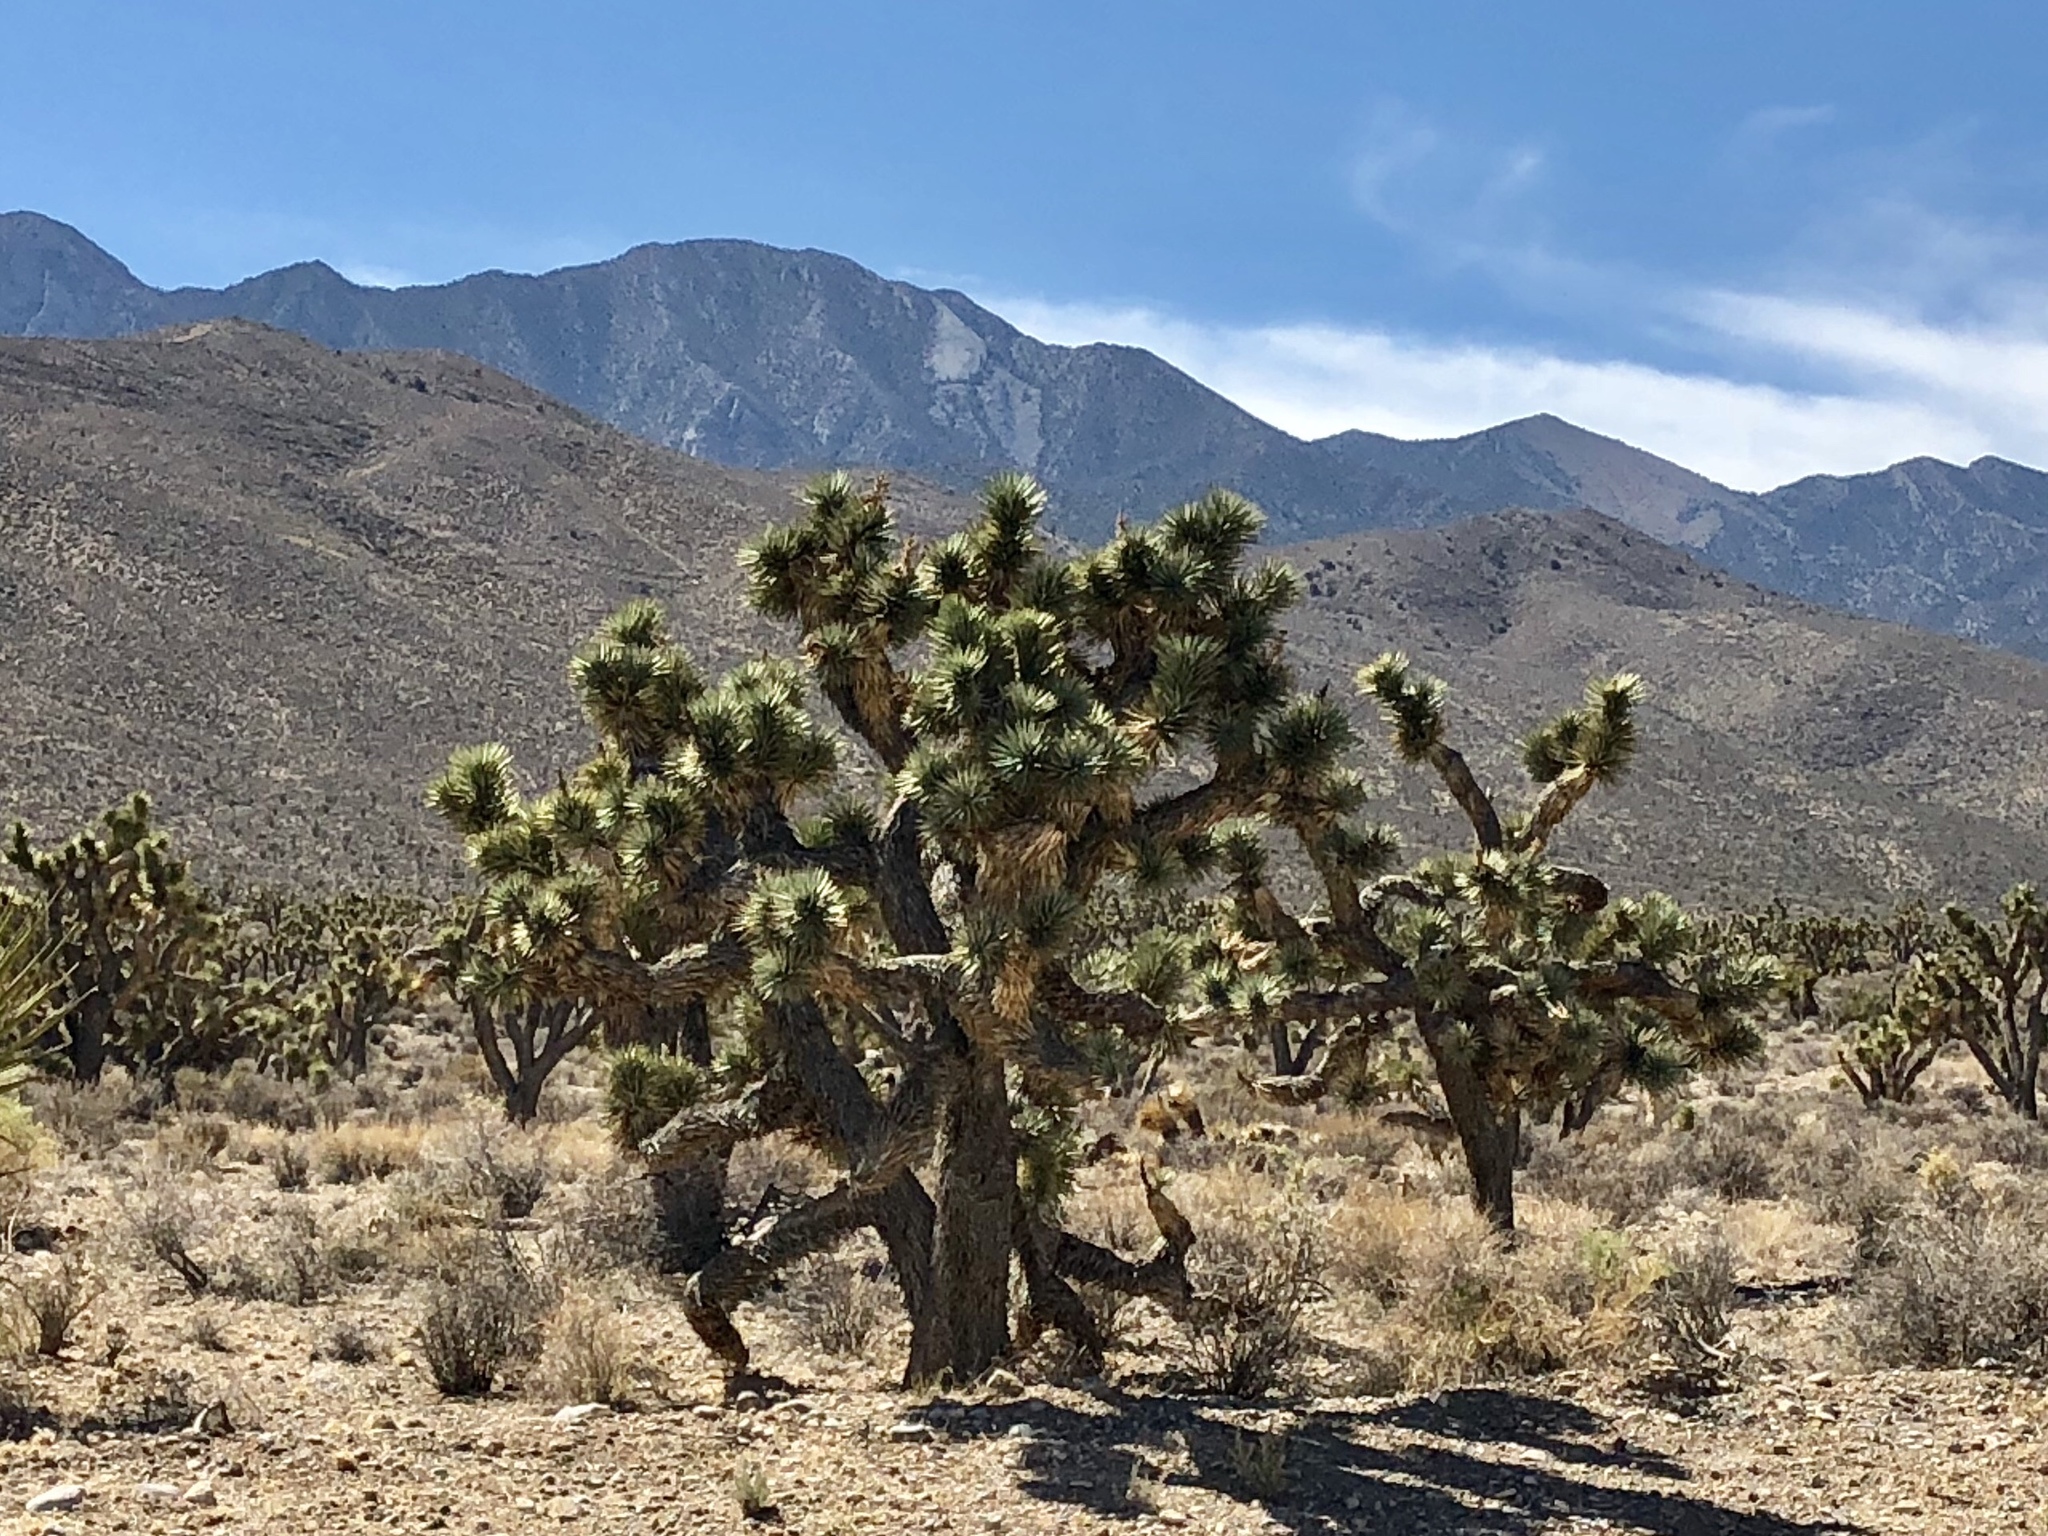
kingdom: Plantae
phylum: Tracheophyta
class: Liliopsida
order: Asparagales
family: Asparagaceae
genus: Yucca
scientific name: Yucca brevifolia
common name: Joshua tree
